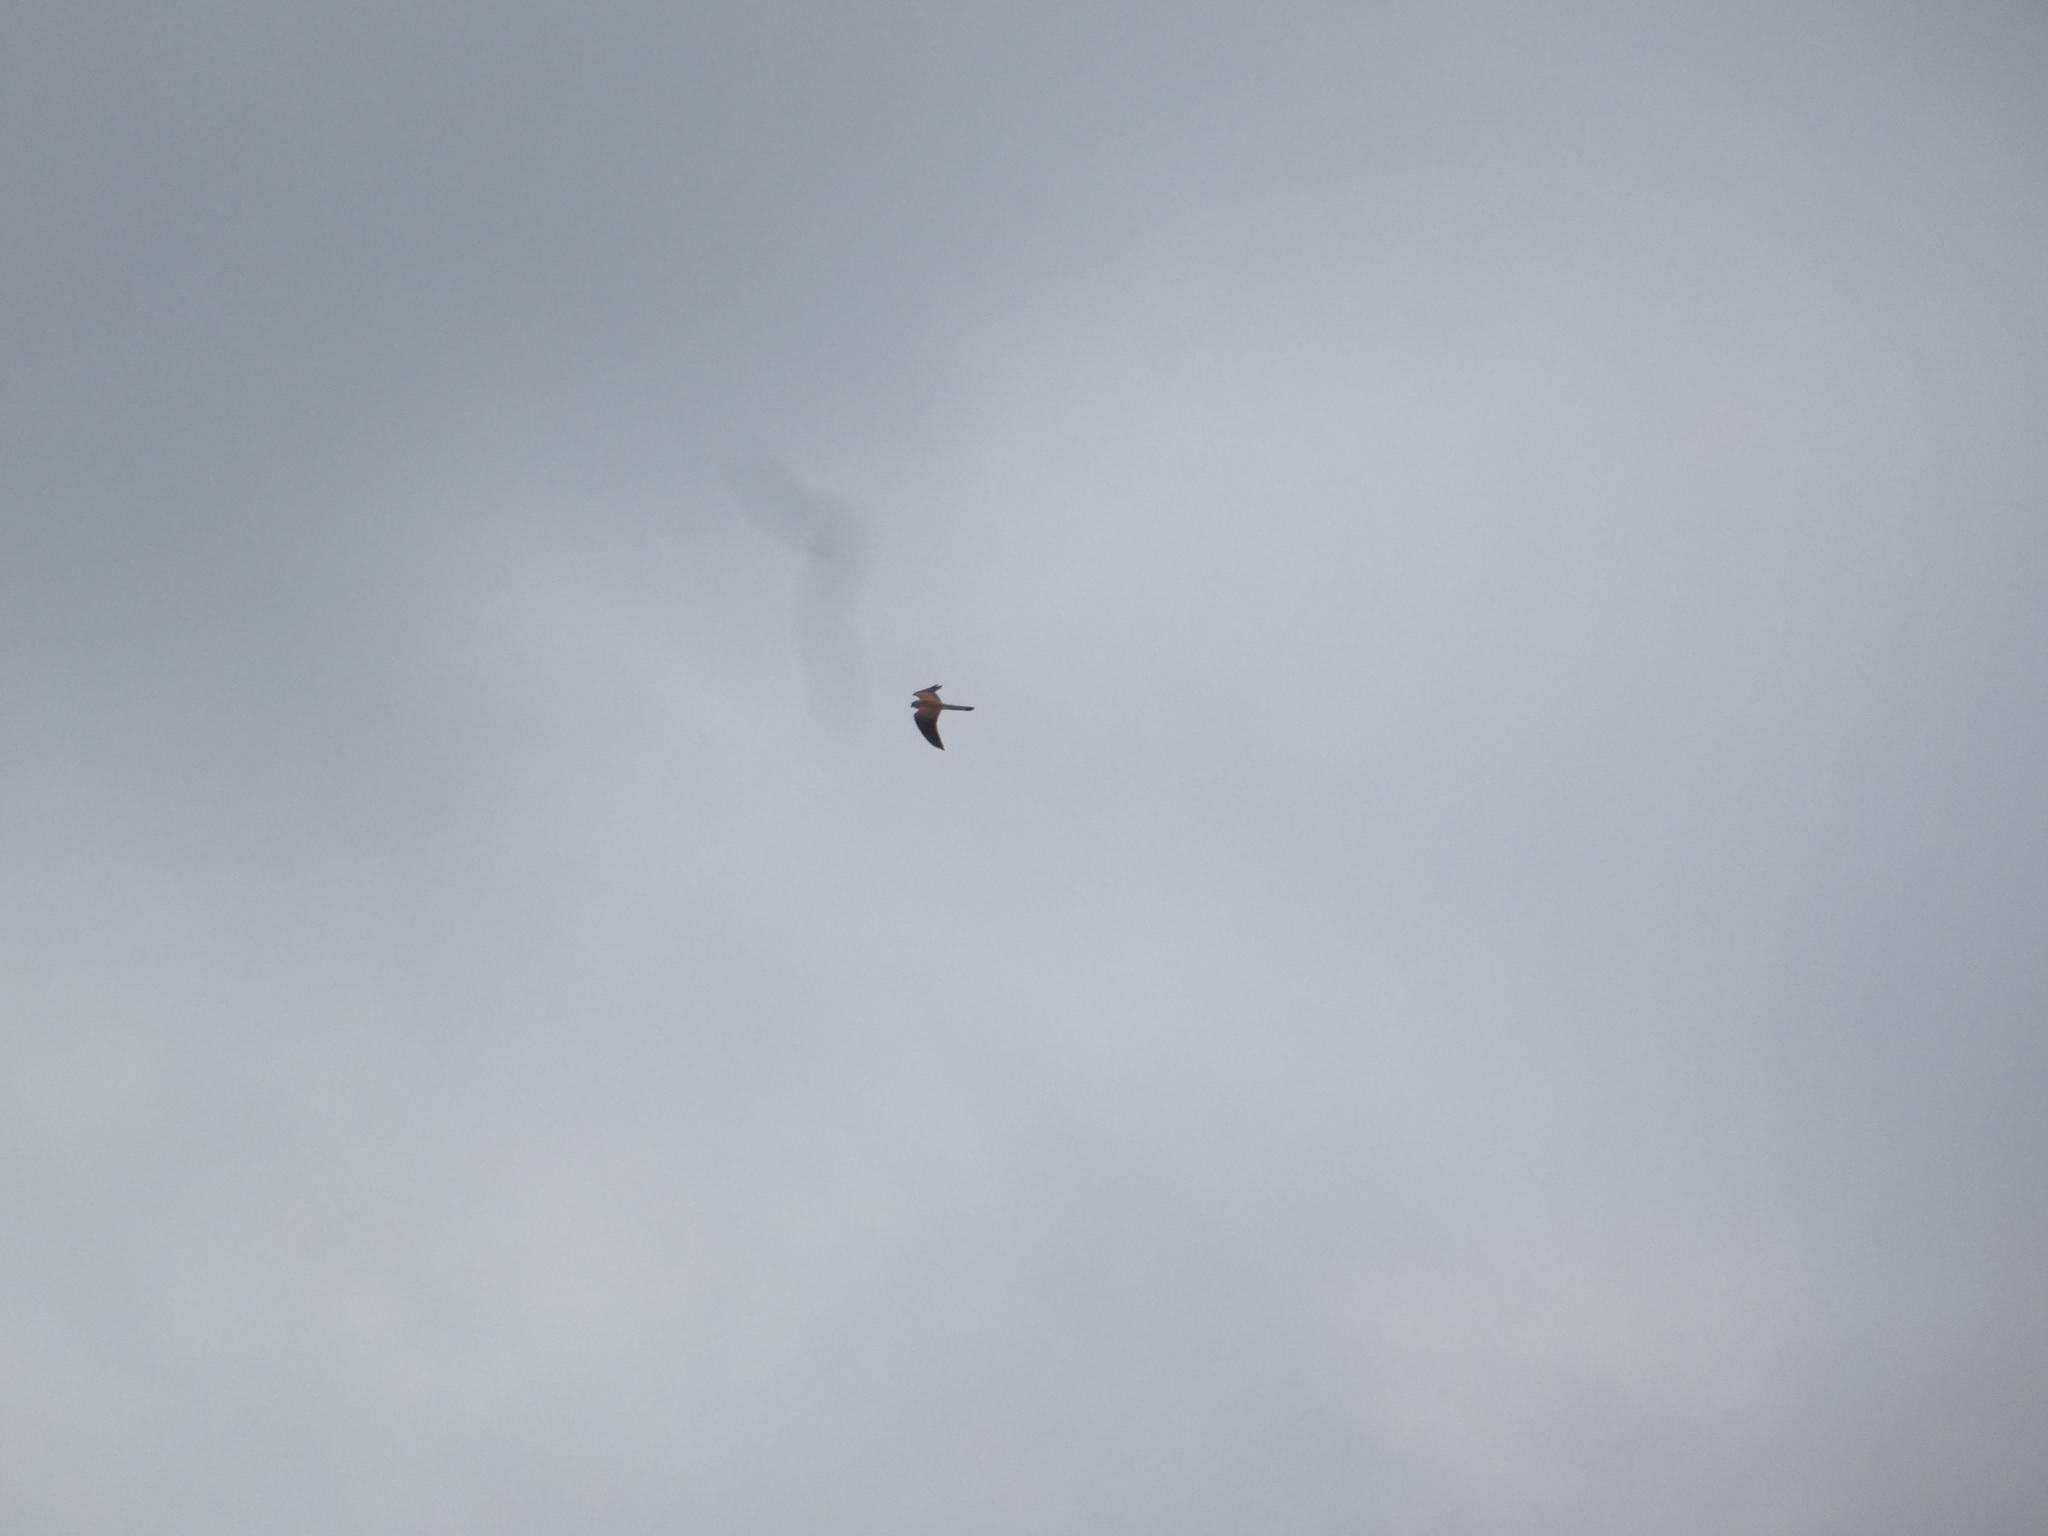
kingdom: Animalia
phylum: Chordata
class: Aves
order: Falconiformes
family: Falconidae
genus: Falco
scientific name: Falco naumanni
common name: Lesser kestrel
